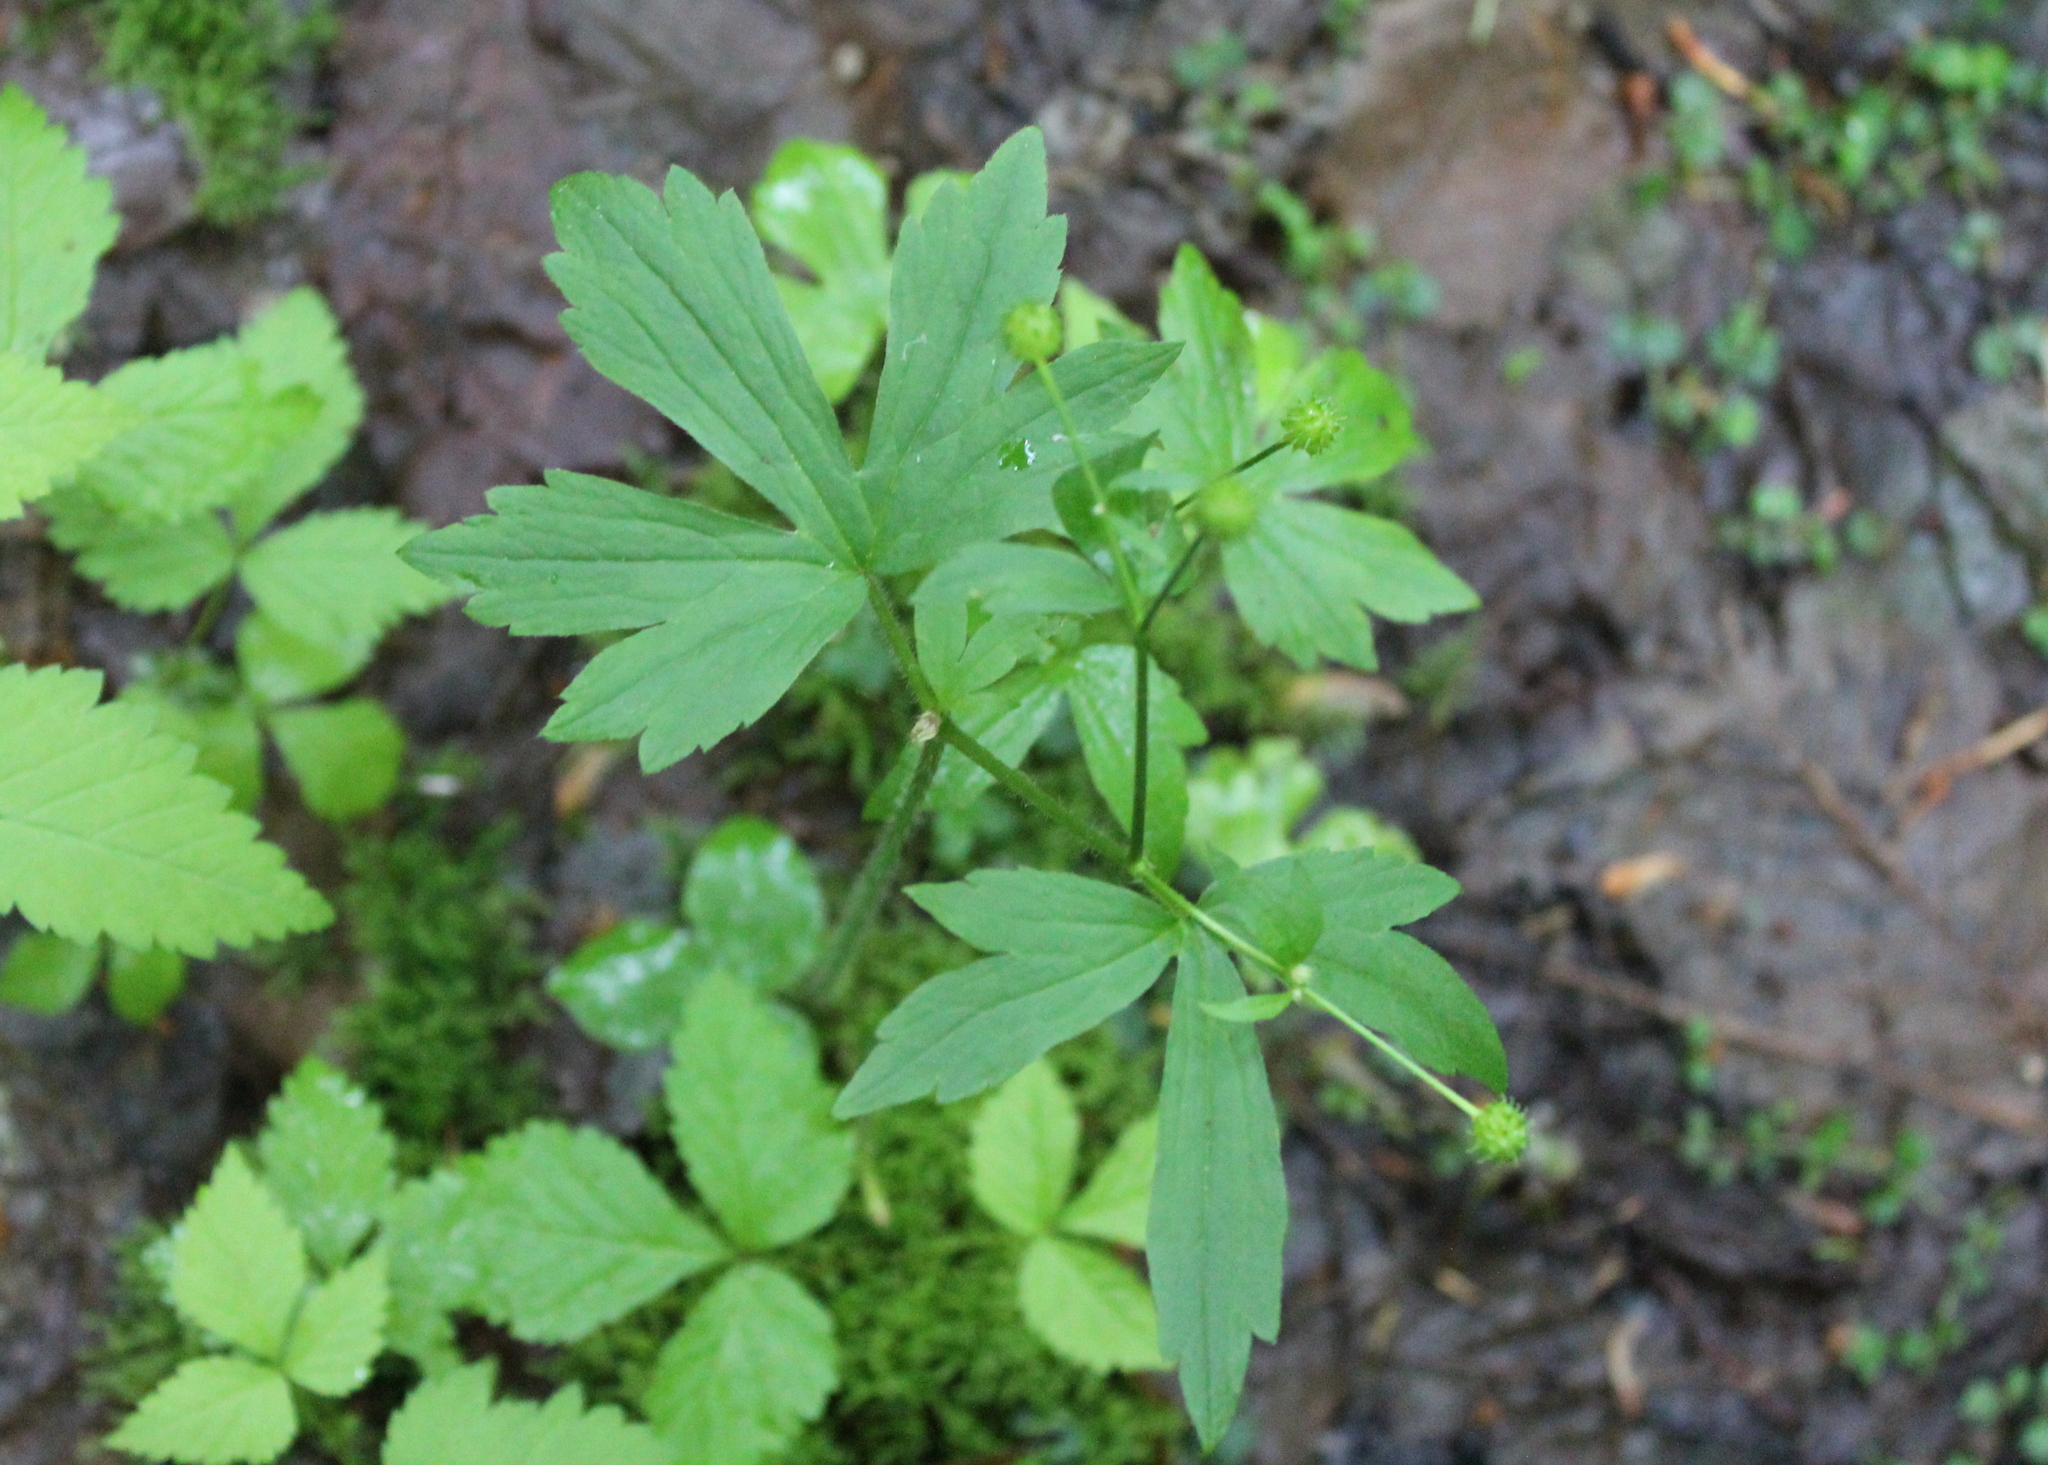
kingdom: Plantae
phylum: Tracheophyta
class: Magnoliopsida
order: Ranunculales
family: Ranunculaceae
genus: Ranunculus
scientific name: Ranunculus recurvatus
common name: Blisterwort
